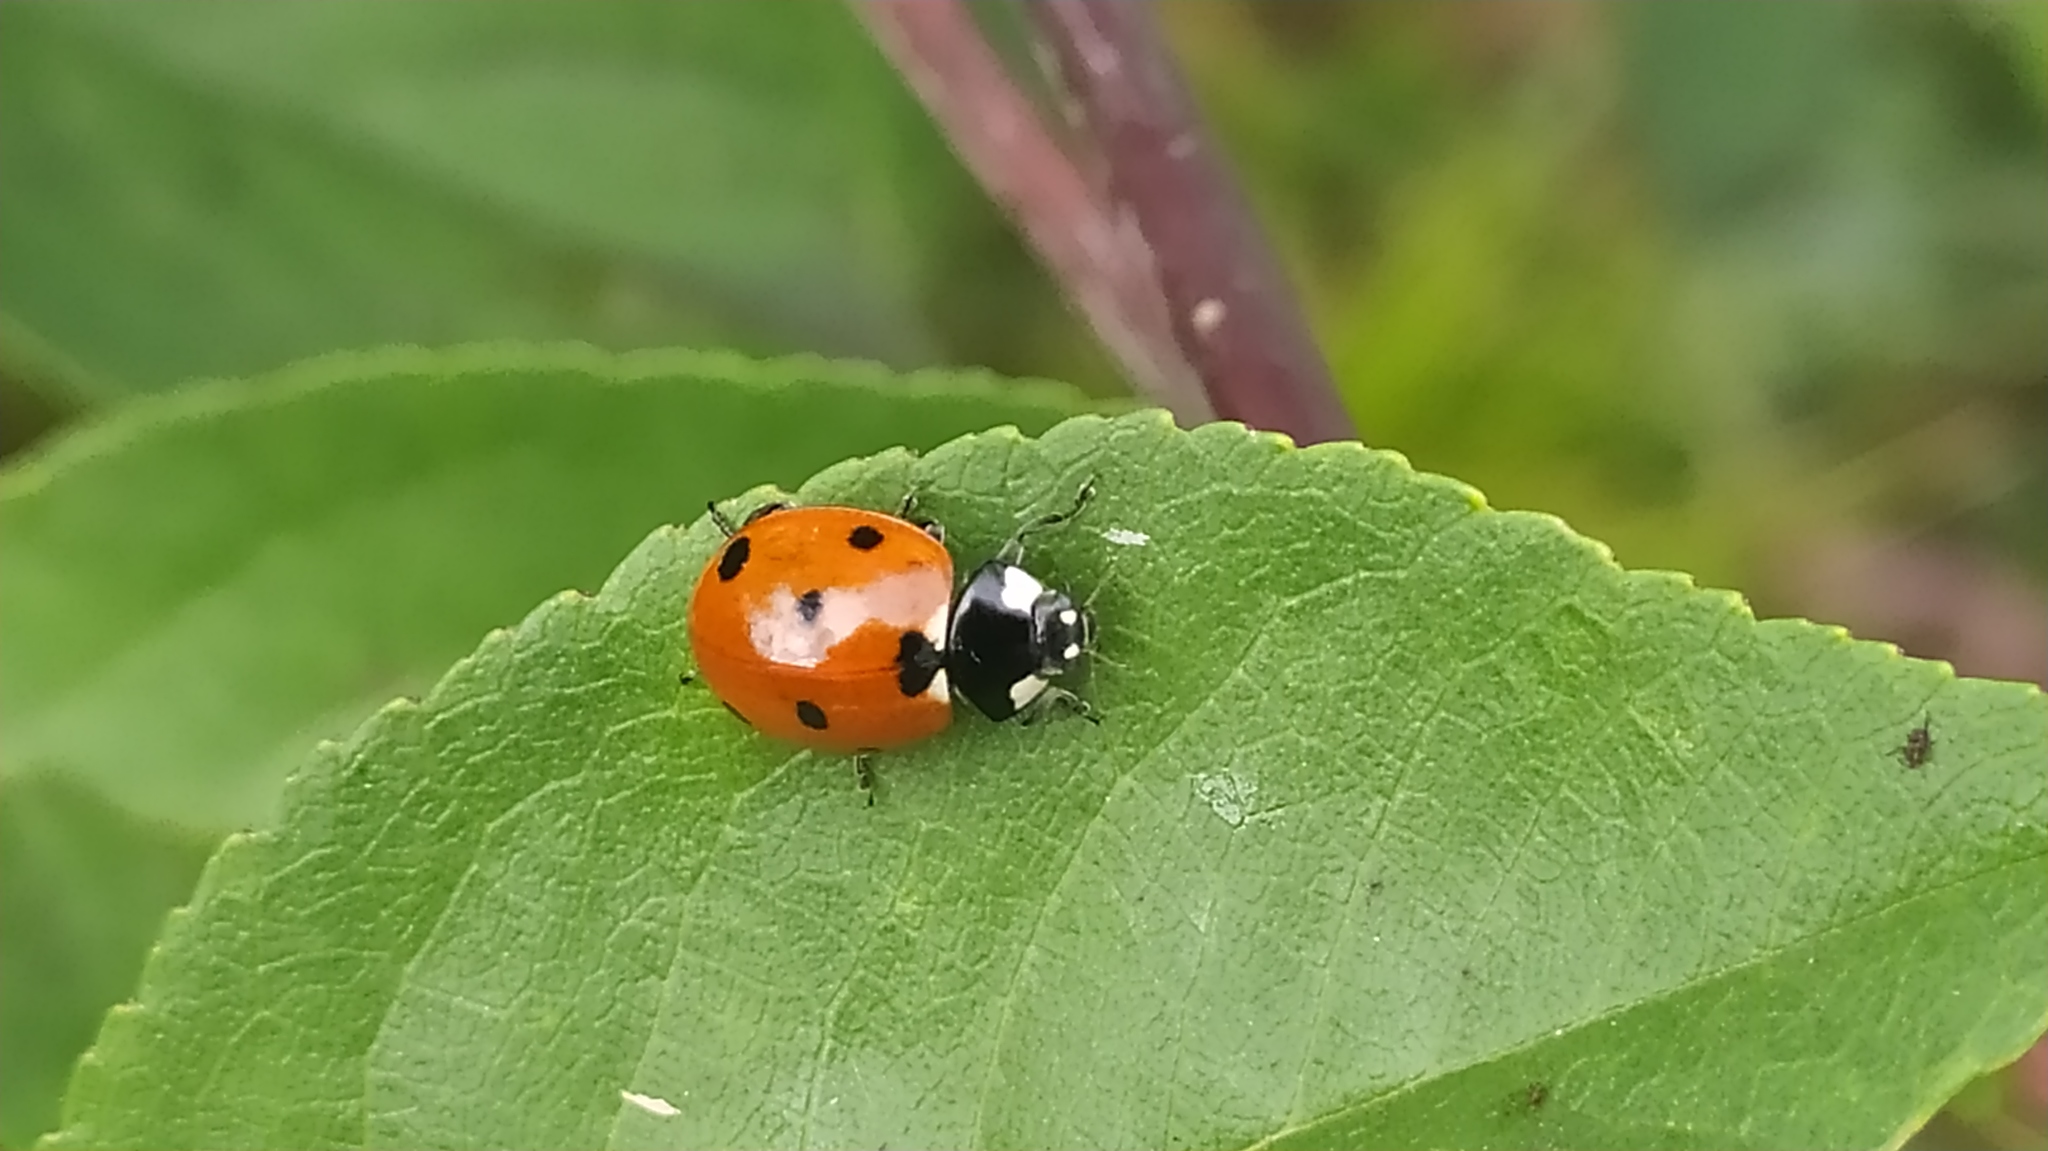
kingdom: Animalia
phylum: Arthropoda
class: Insecta
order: Coleoptera
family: Coccinellidae
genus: Coccinella
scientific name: Coccinella septempunctata
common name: Sevenspotted lady beetle
